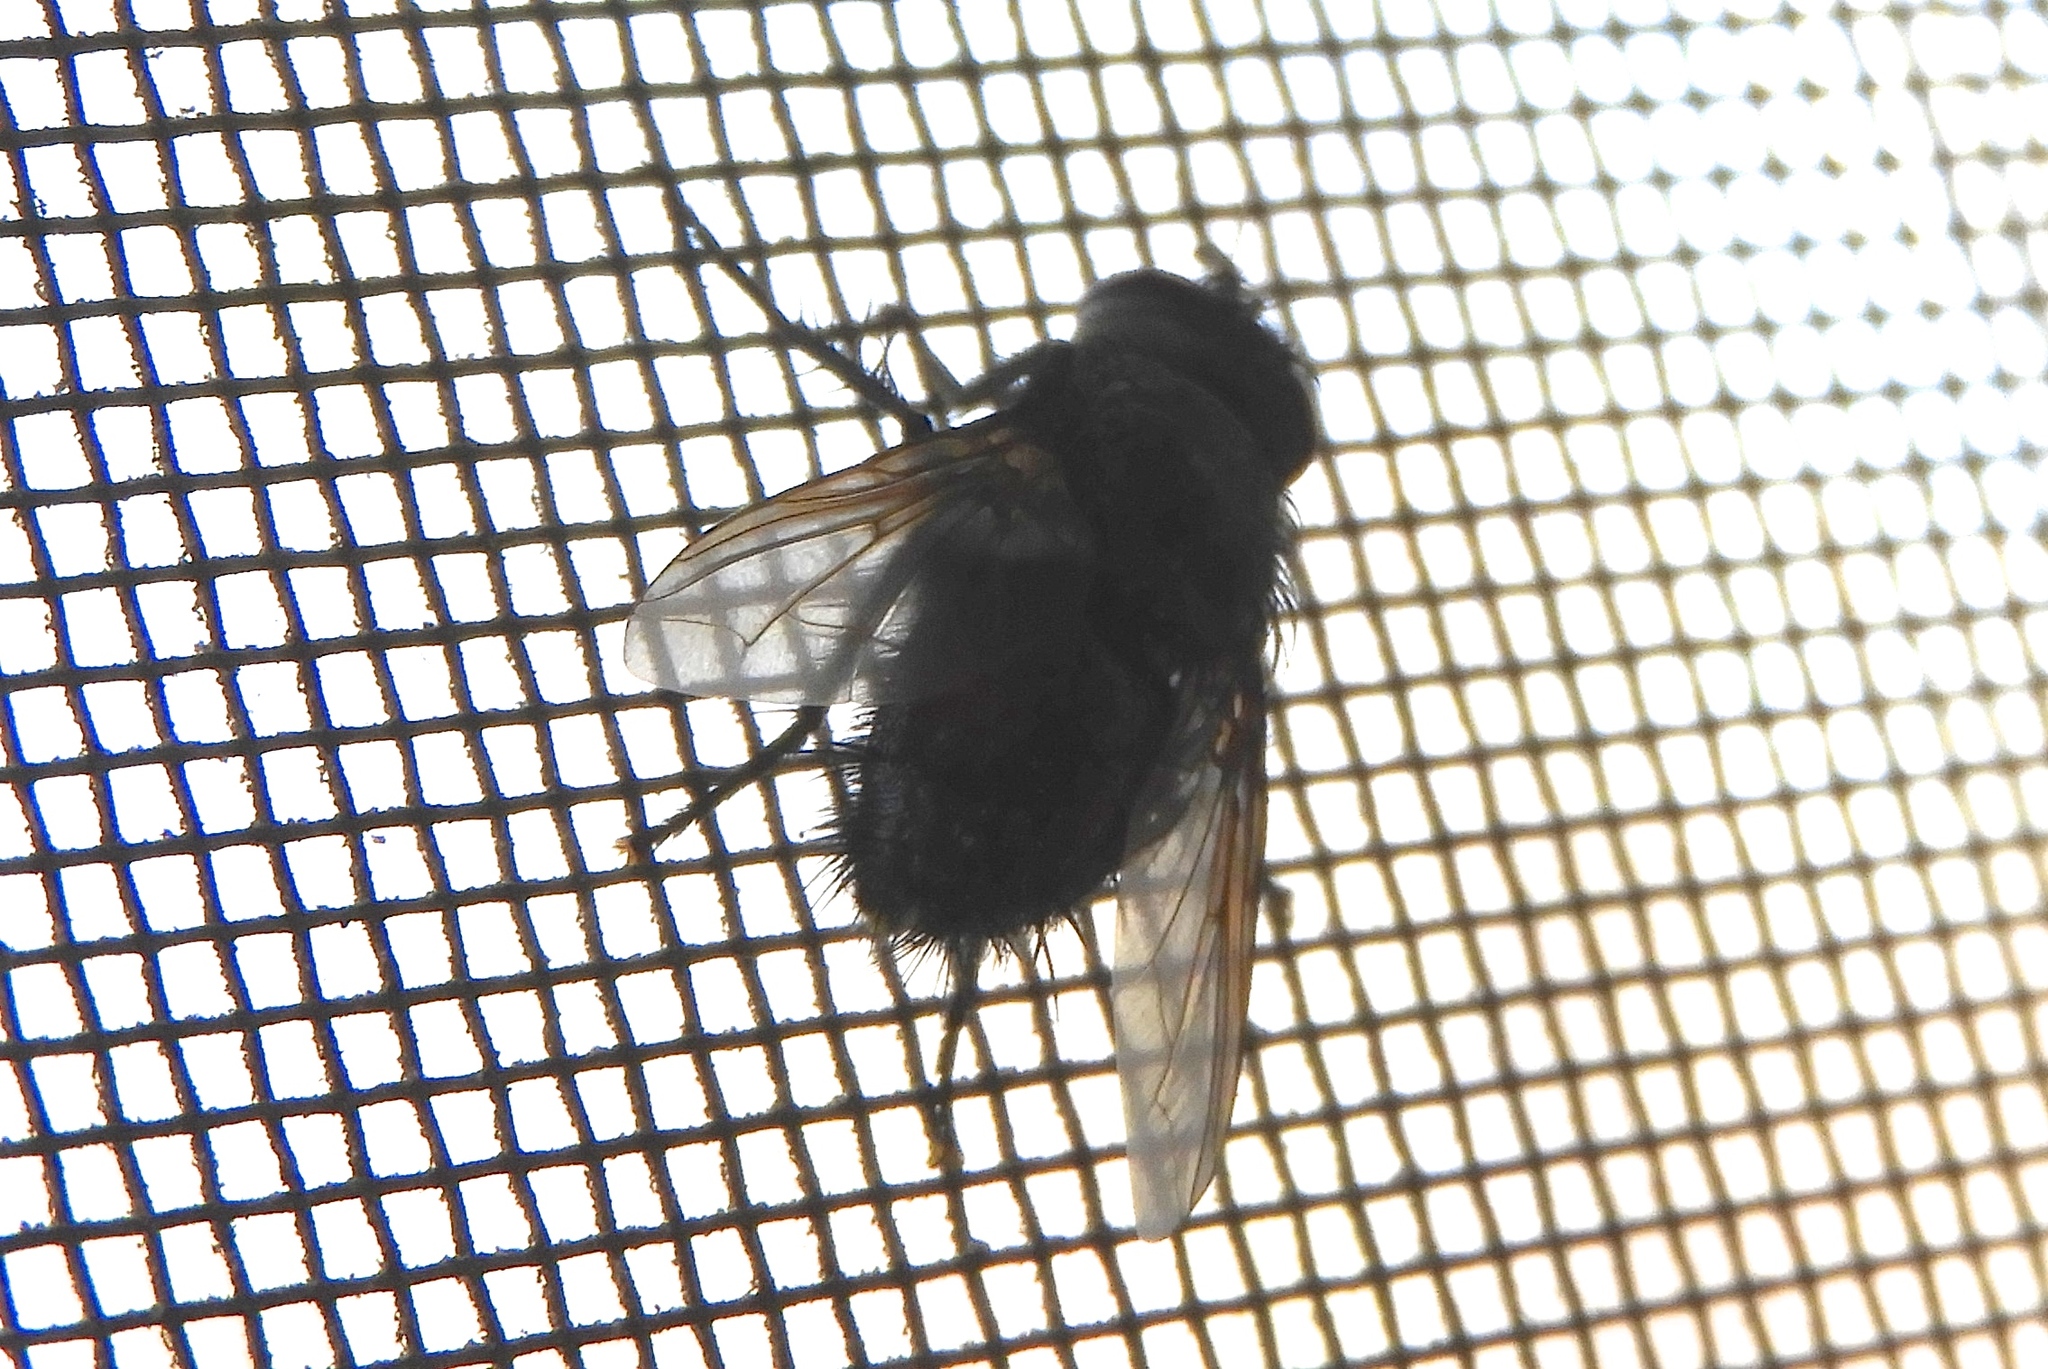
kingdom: Animalia
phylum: Arthropoda
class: Insecta
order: Diptera
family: Tachinidae
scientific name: Tachinidae
